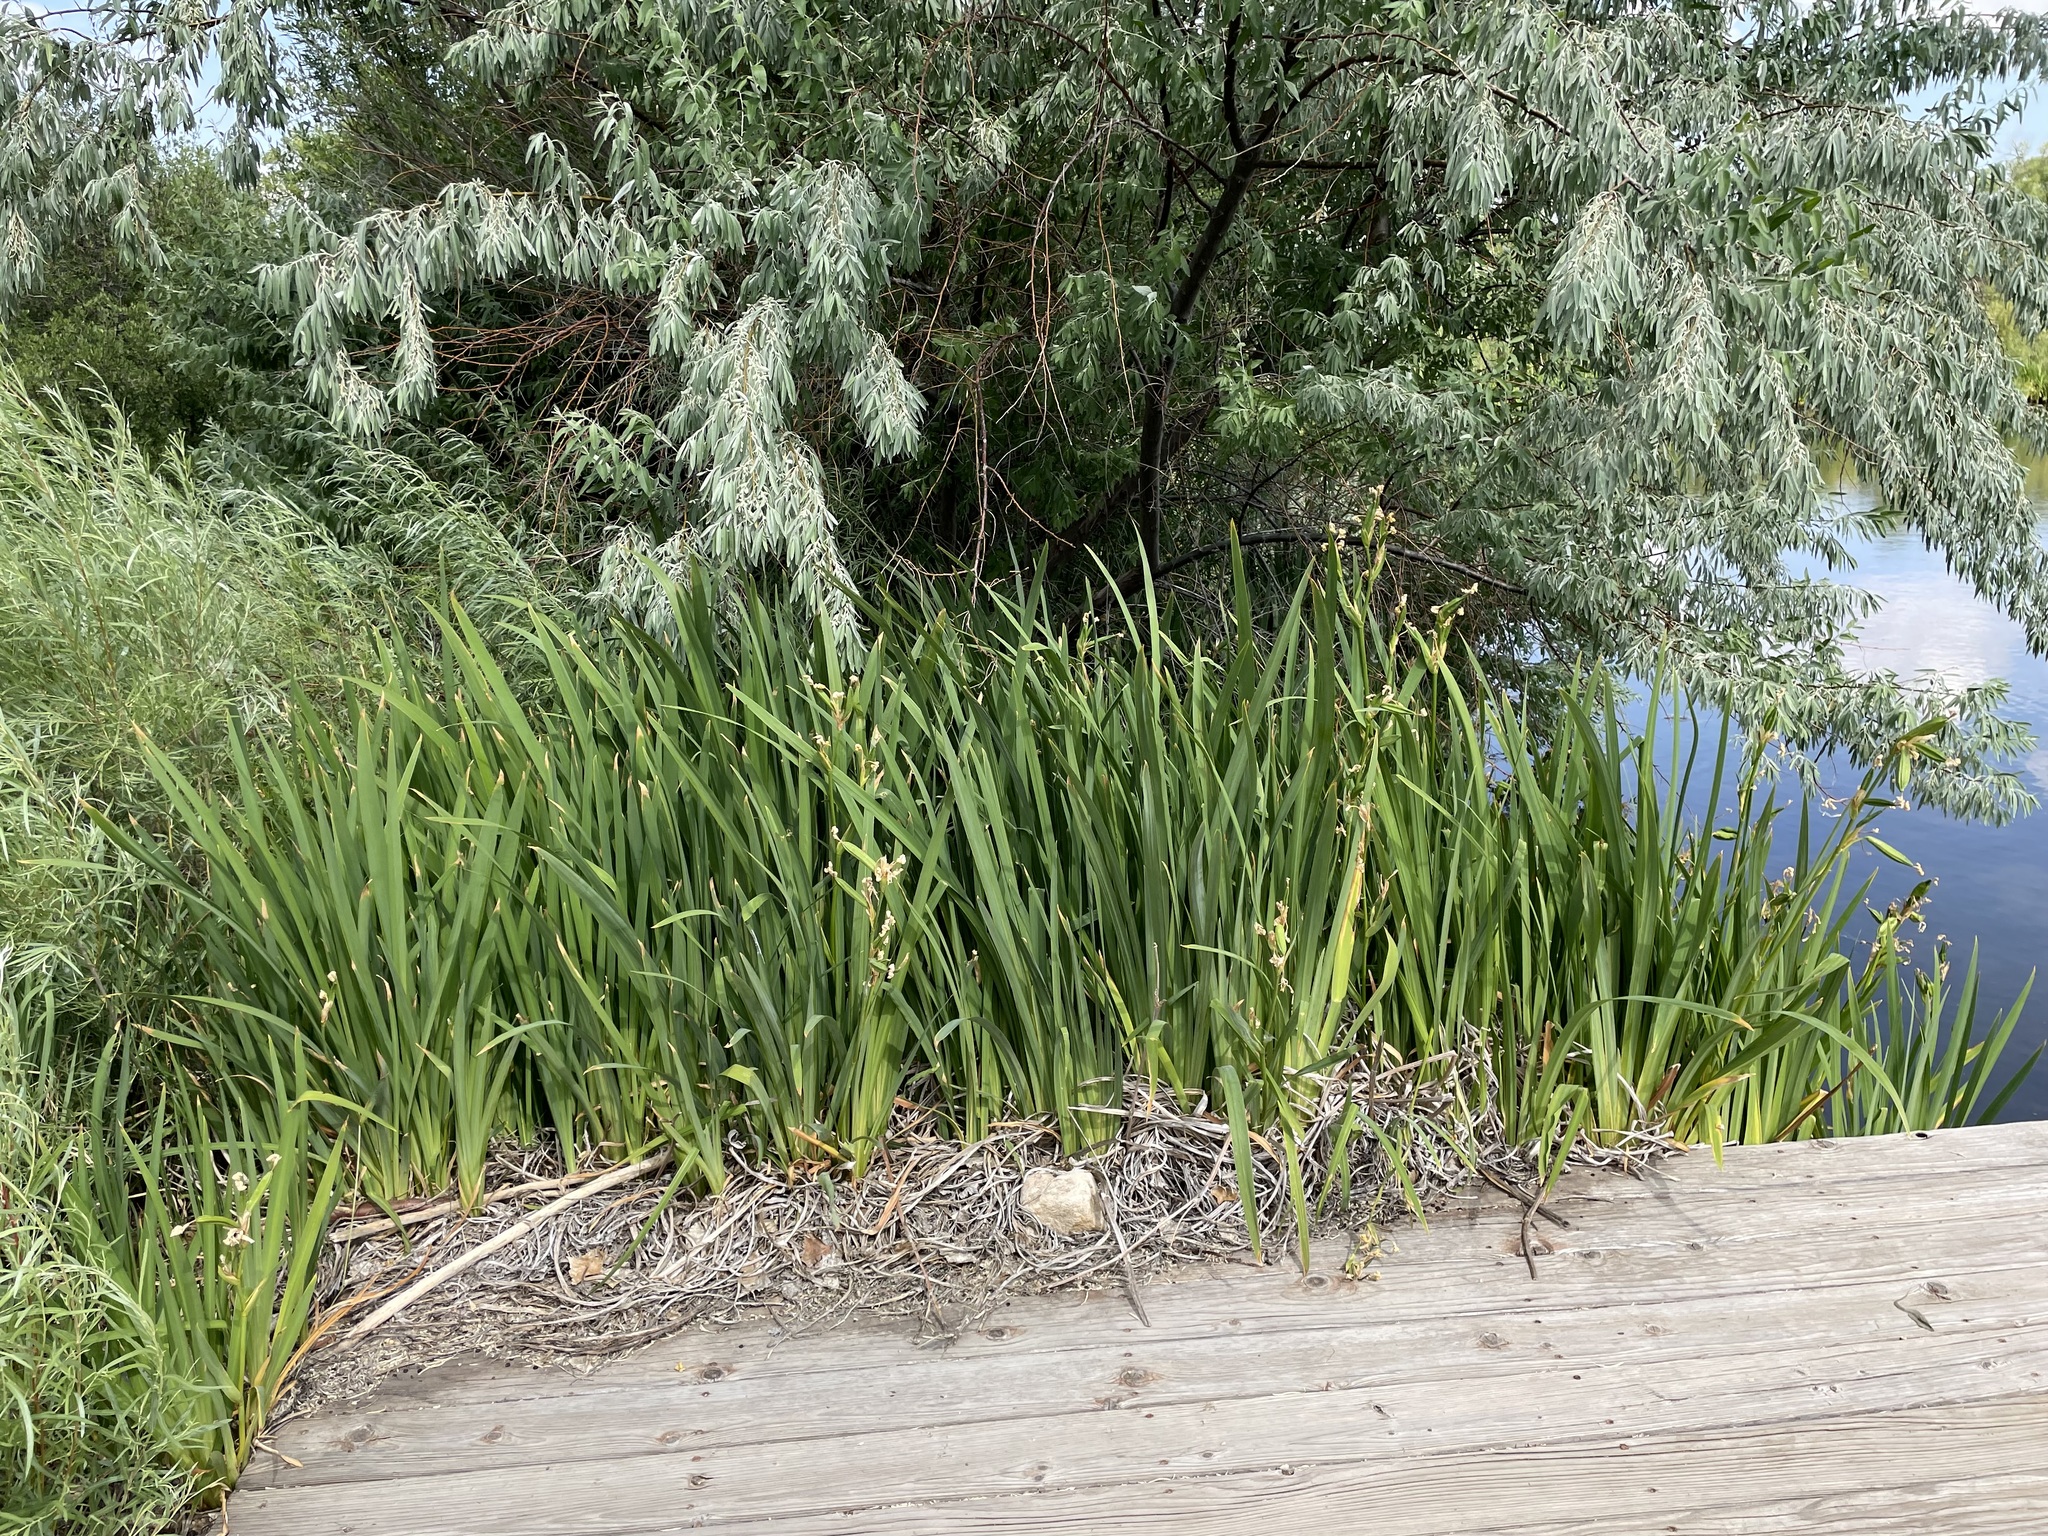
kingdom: Plantae
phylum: Tracheophyta
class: Liliopsida
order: Asparagales
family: Iridaceae
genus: Iris
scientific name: Iris pseudacorus
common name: Yellow flag
